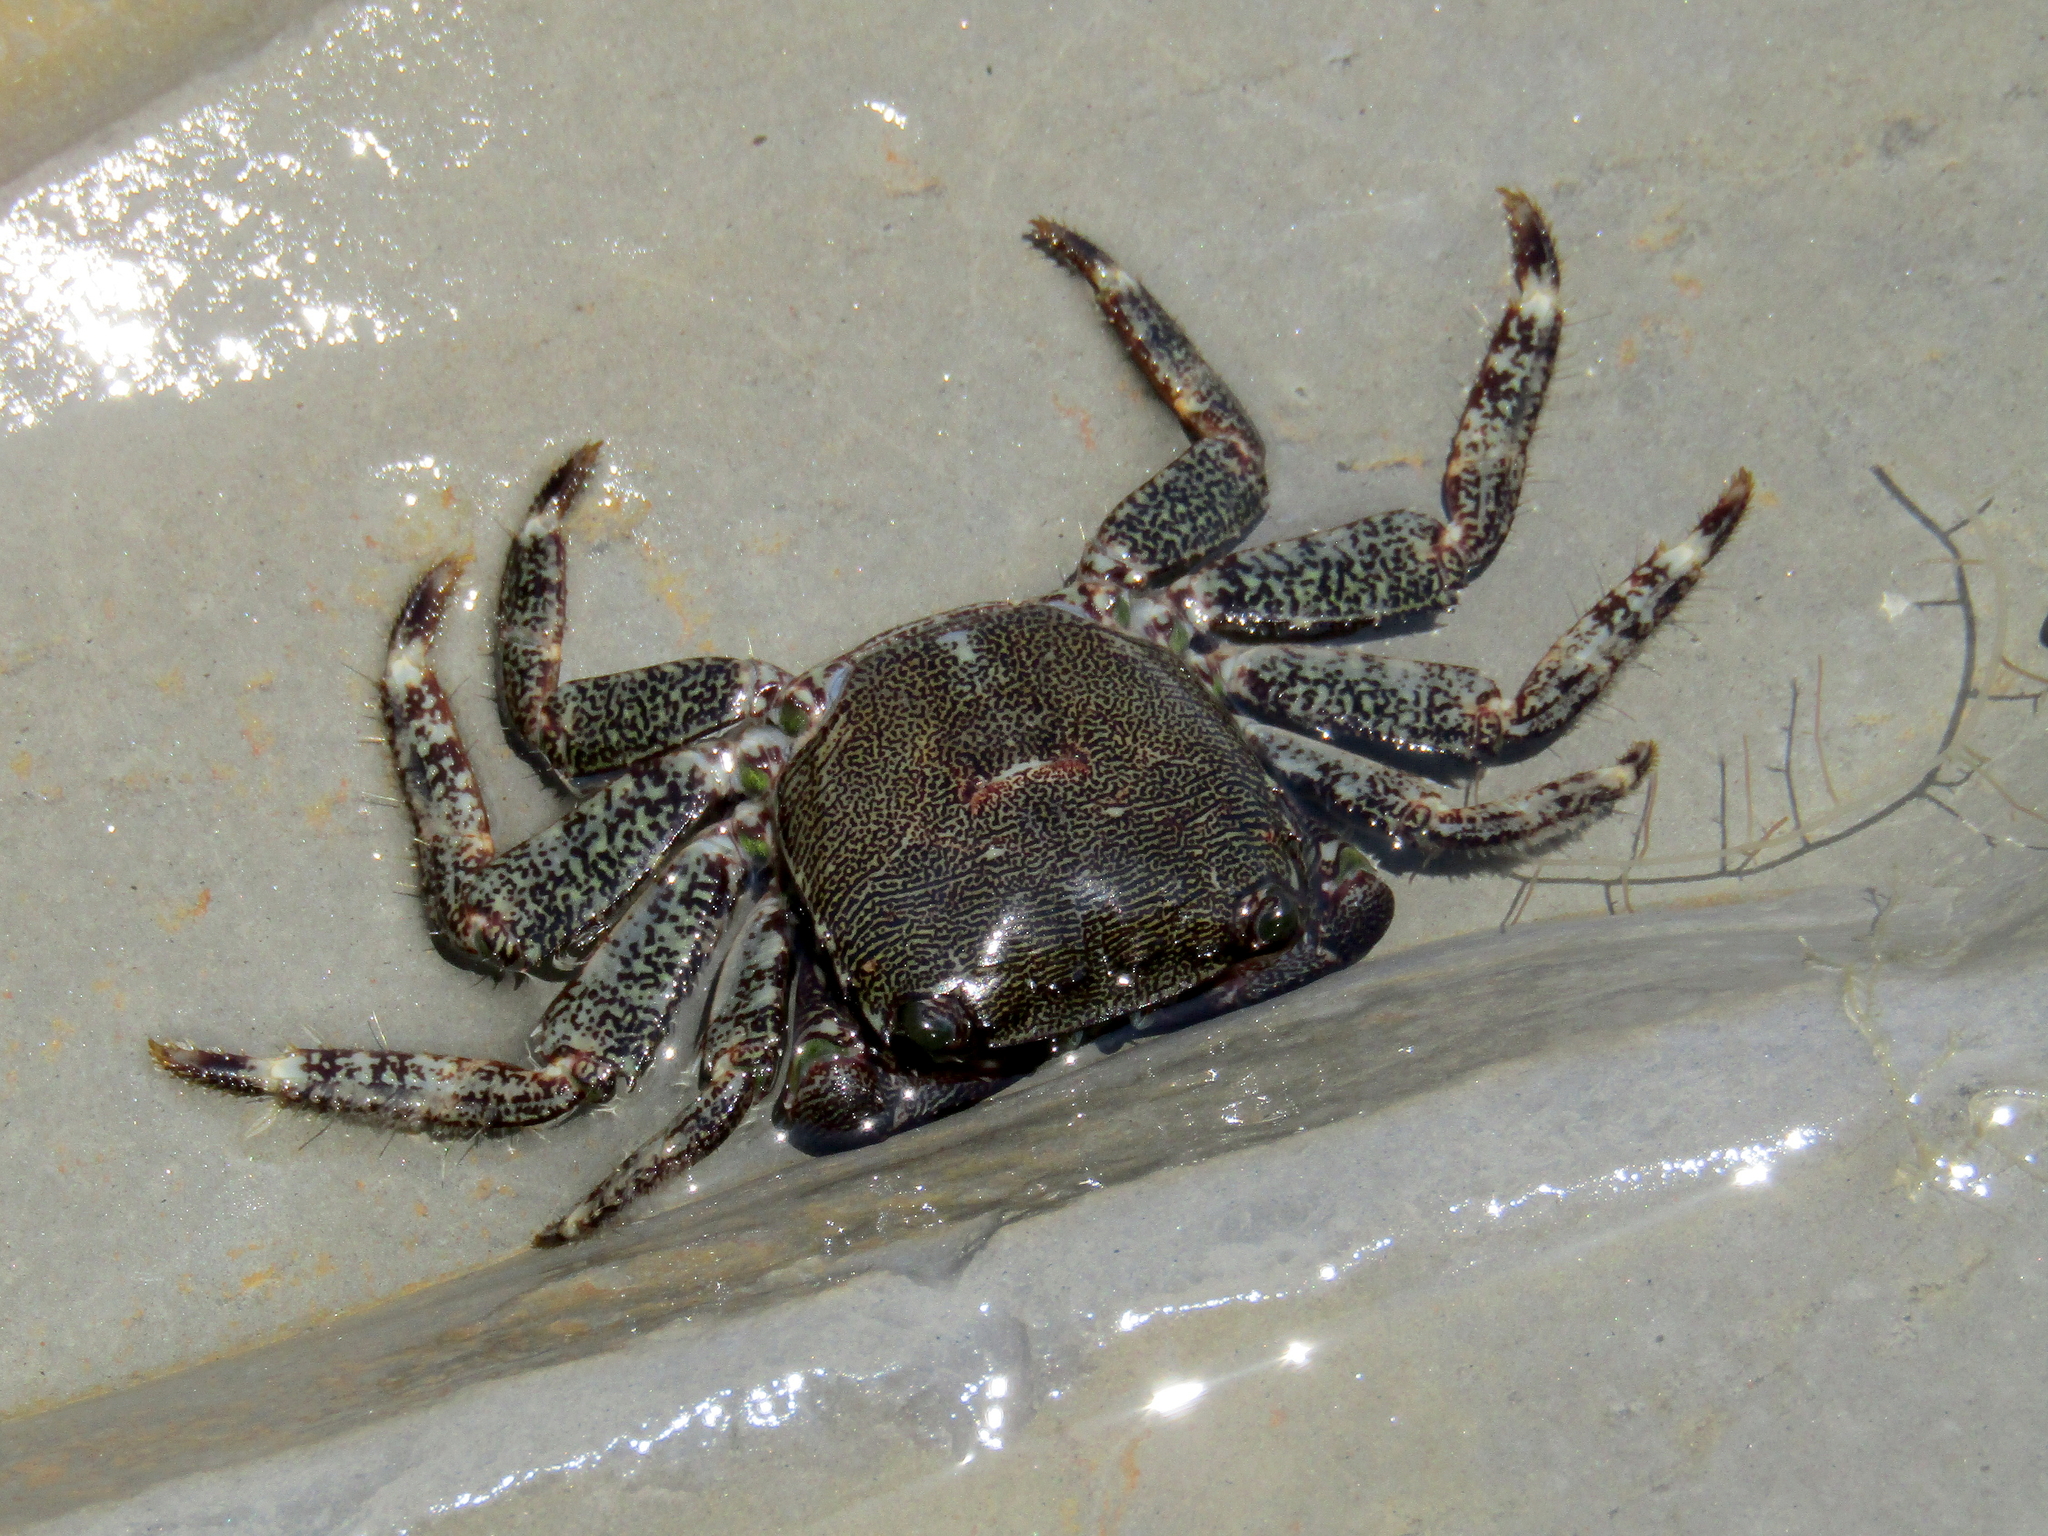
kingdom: Animalia
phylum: Arthropoda
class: Malacostraca
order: Decapoda
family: Grapsidae
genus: Pachygrapsus
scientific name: Pachygrapsus marmoratus
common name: Marbled rock crab
